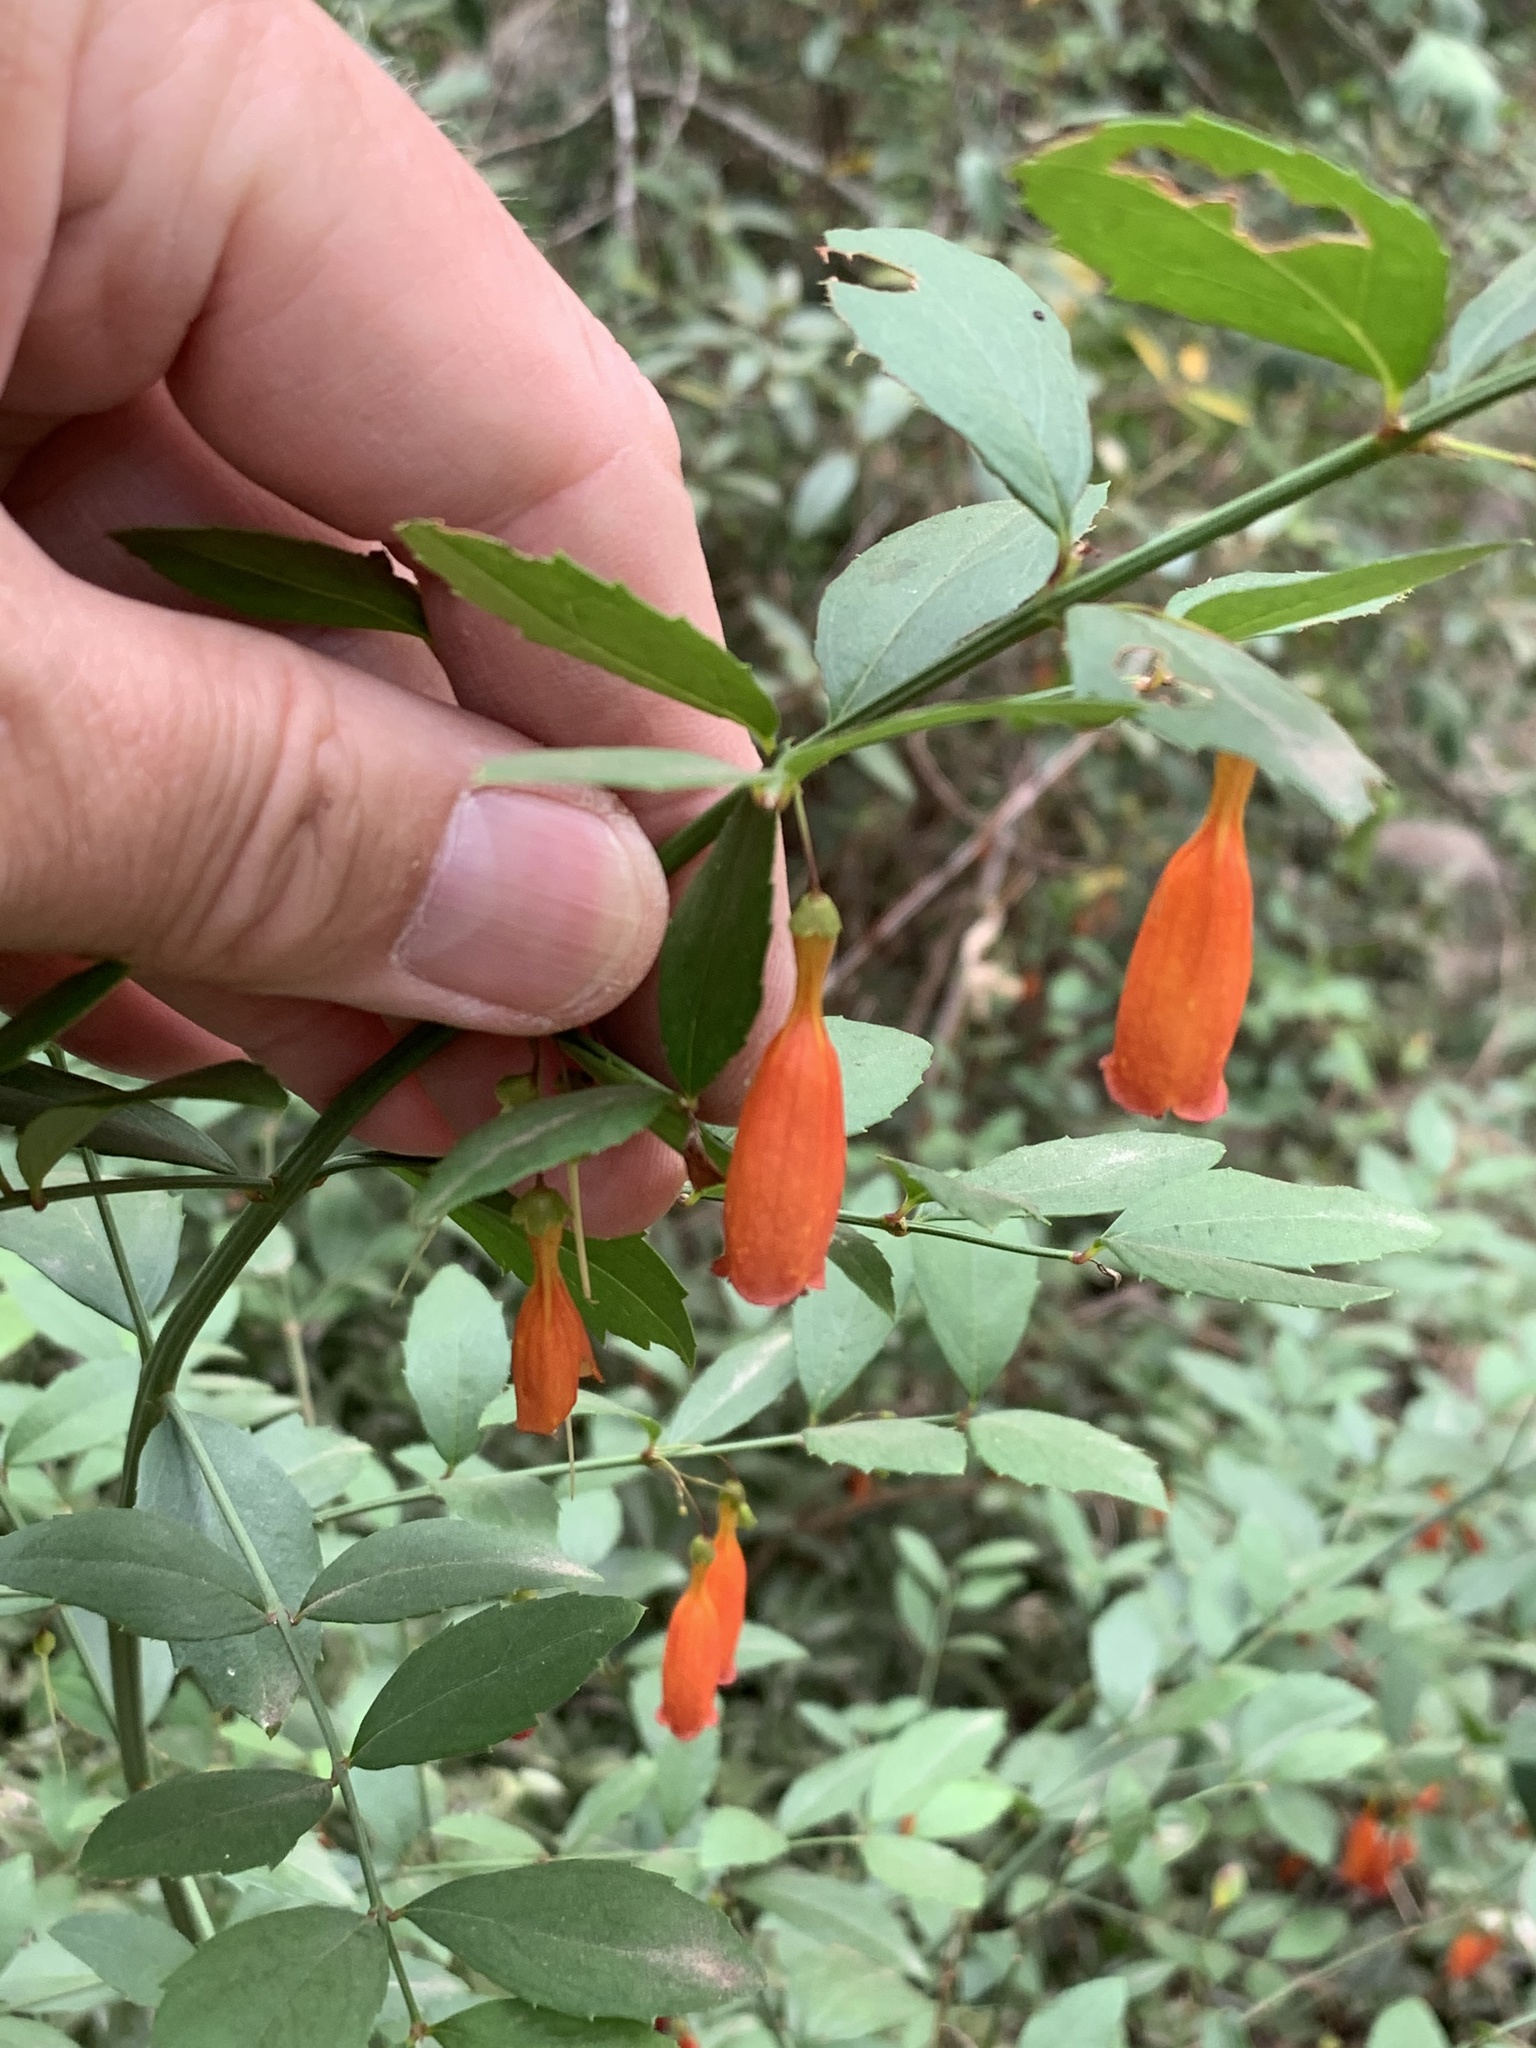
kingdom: Plantae
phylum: Tracheophyta
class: Magnoliopsida
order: Lamiales
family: Stilbaceae
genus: Halleria
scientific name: Halleria elliptica
